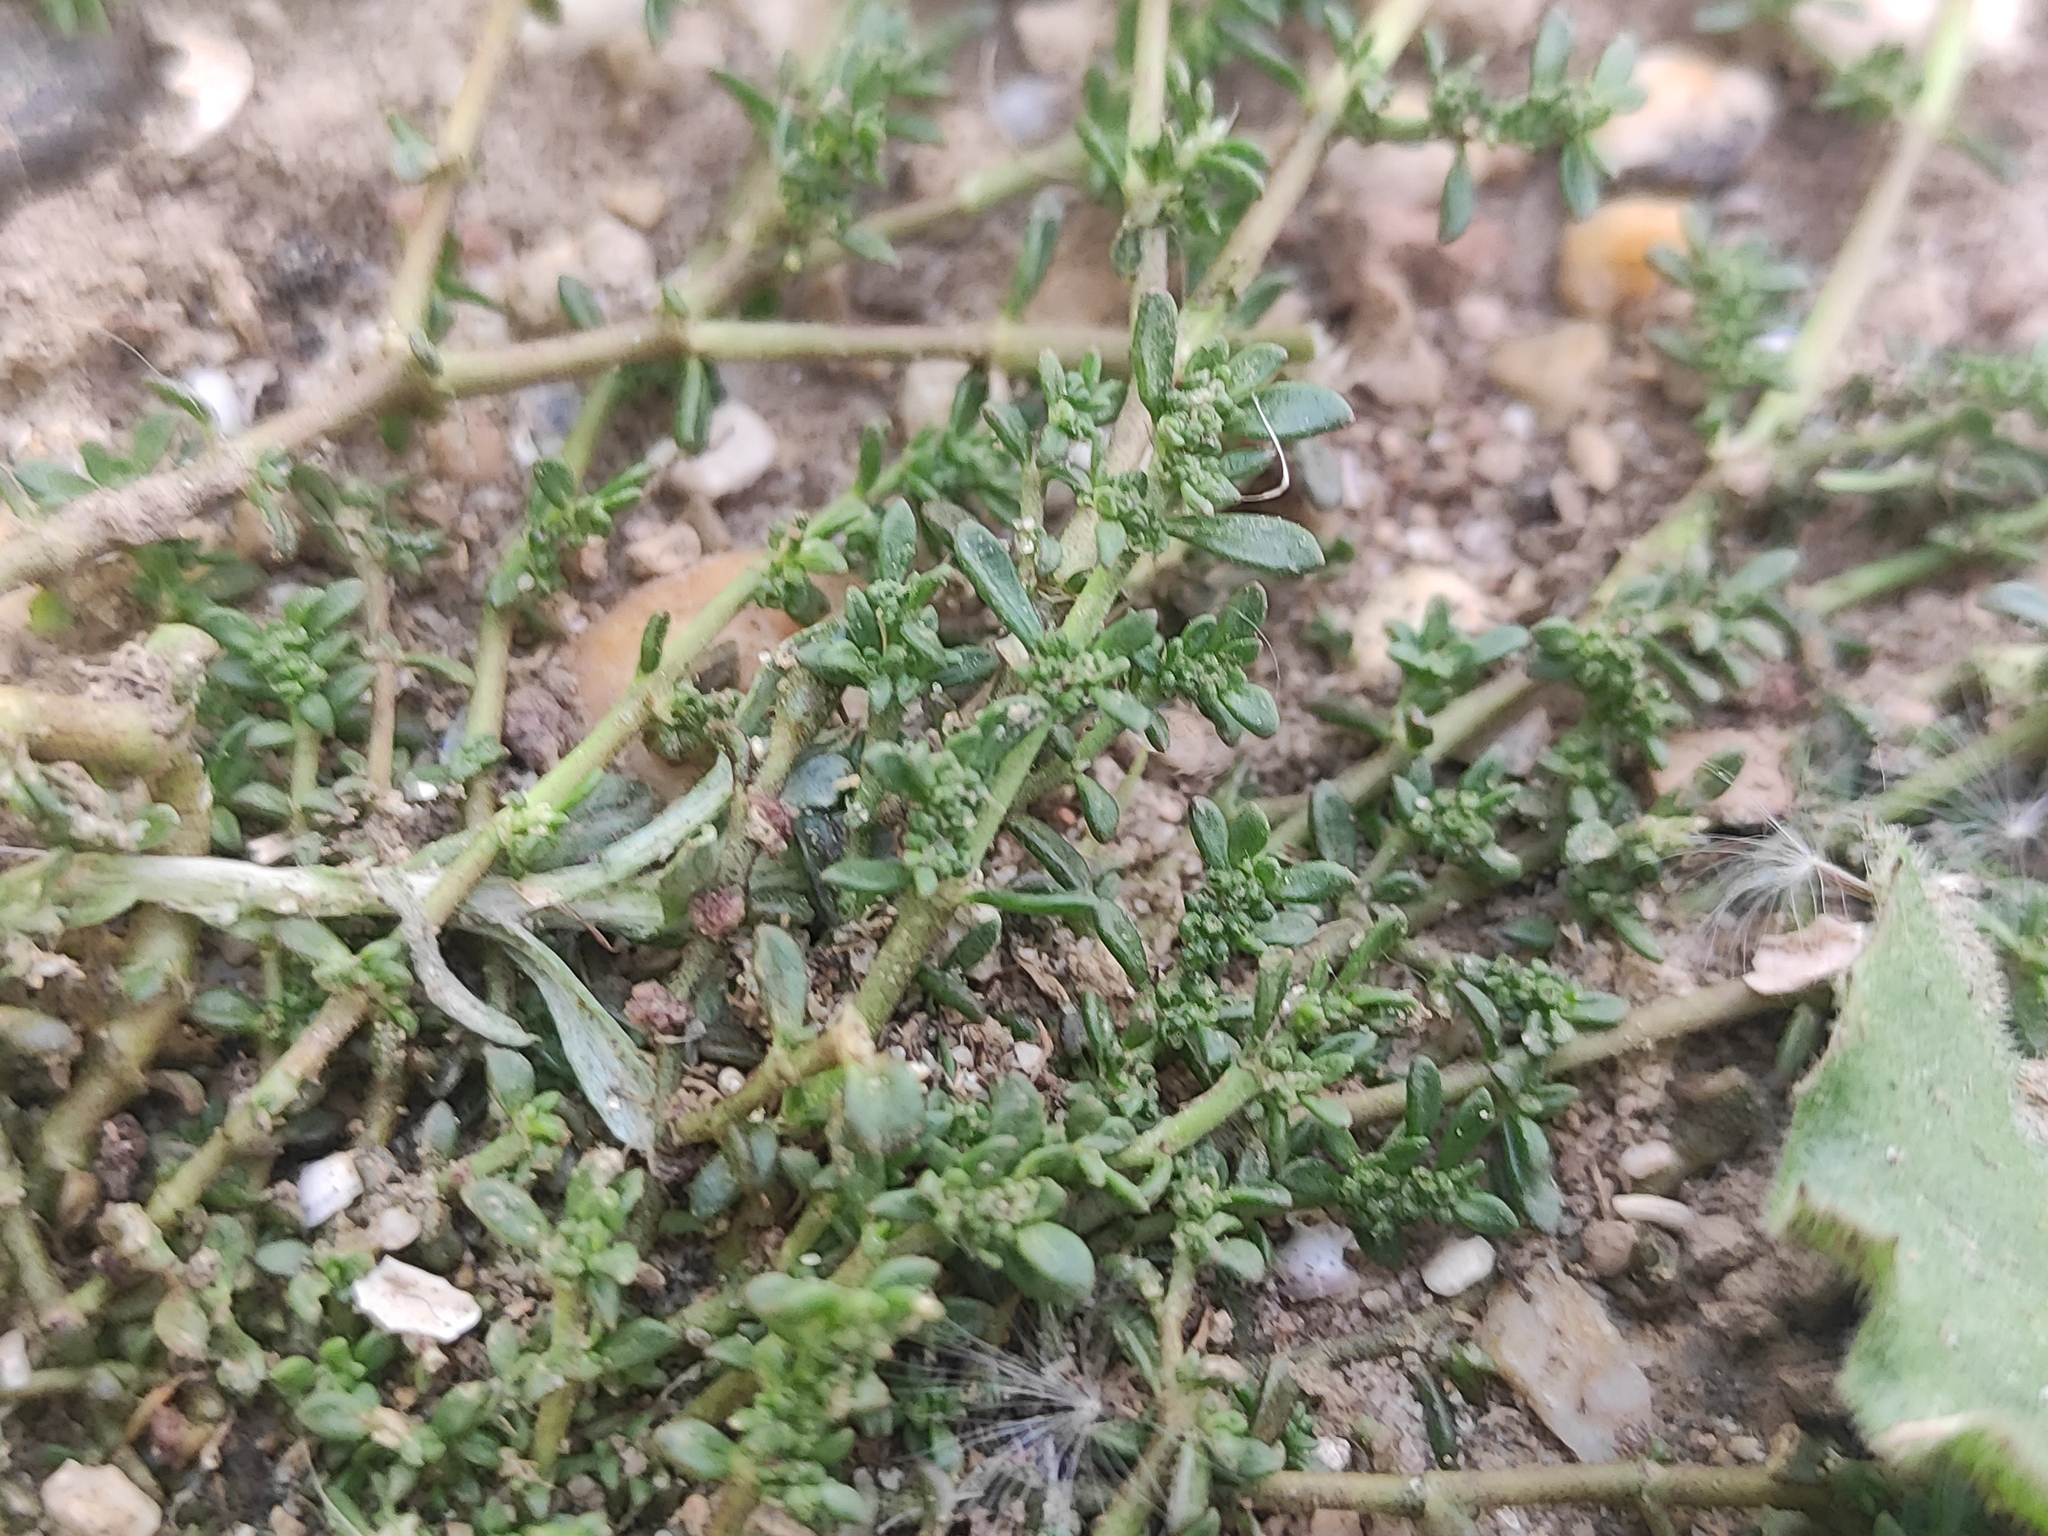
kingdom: Plantae
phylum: Tracheophyta
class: Magnoliopsida
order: Caryophyllales
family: Caryophyllaceae
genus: Herniaria
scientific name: Herniaria glabra
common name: Smooth rupturewort
